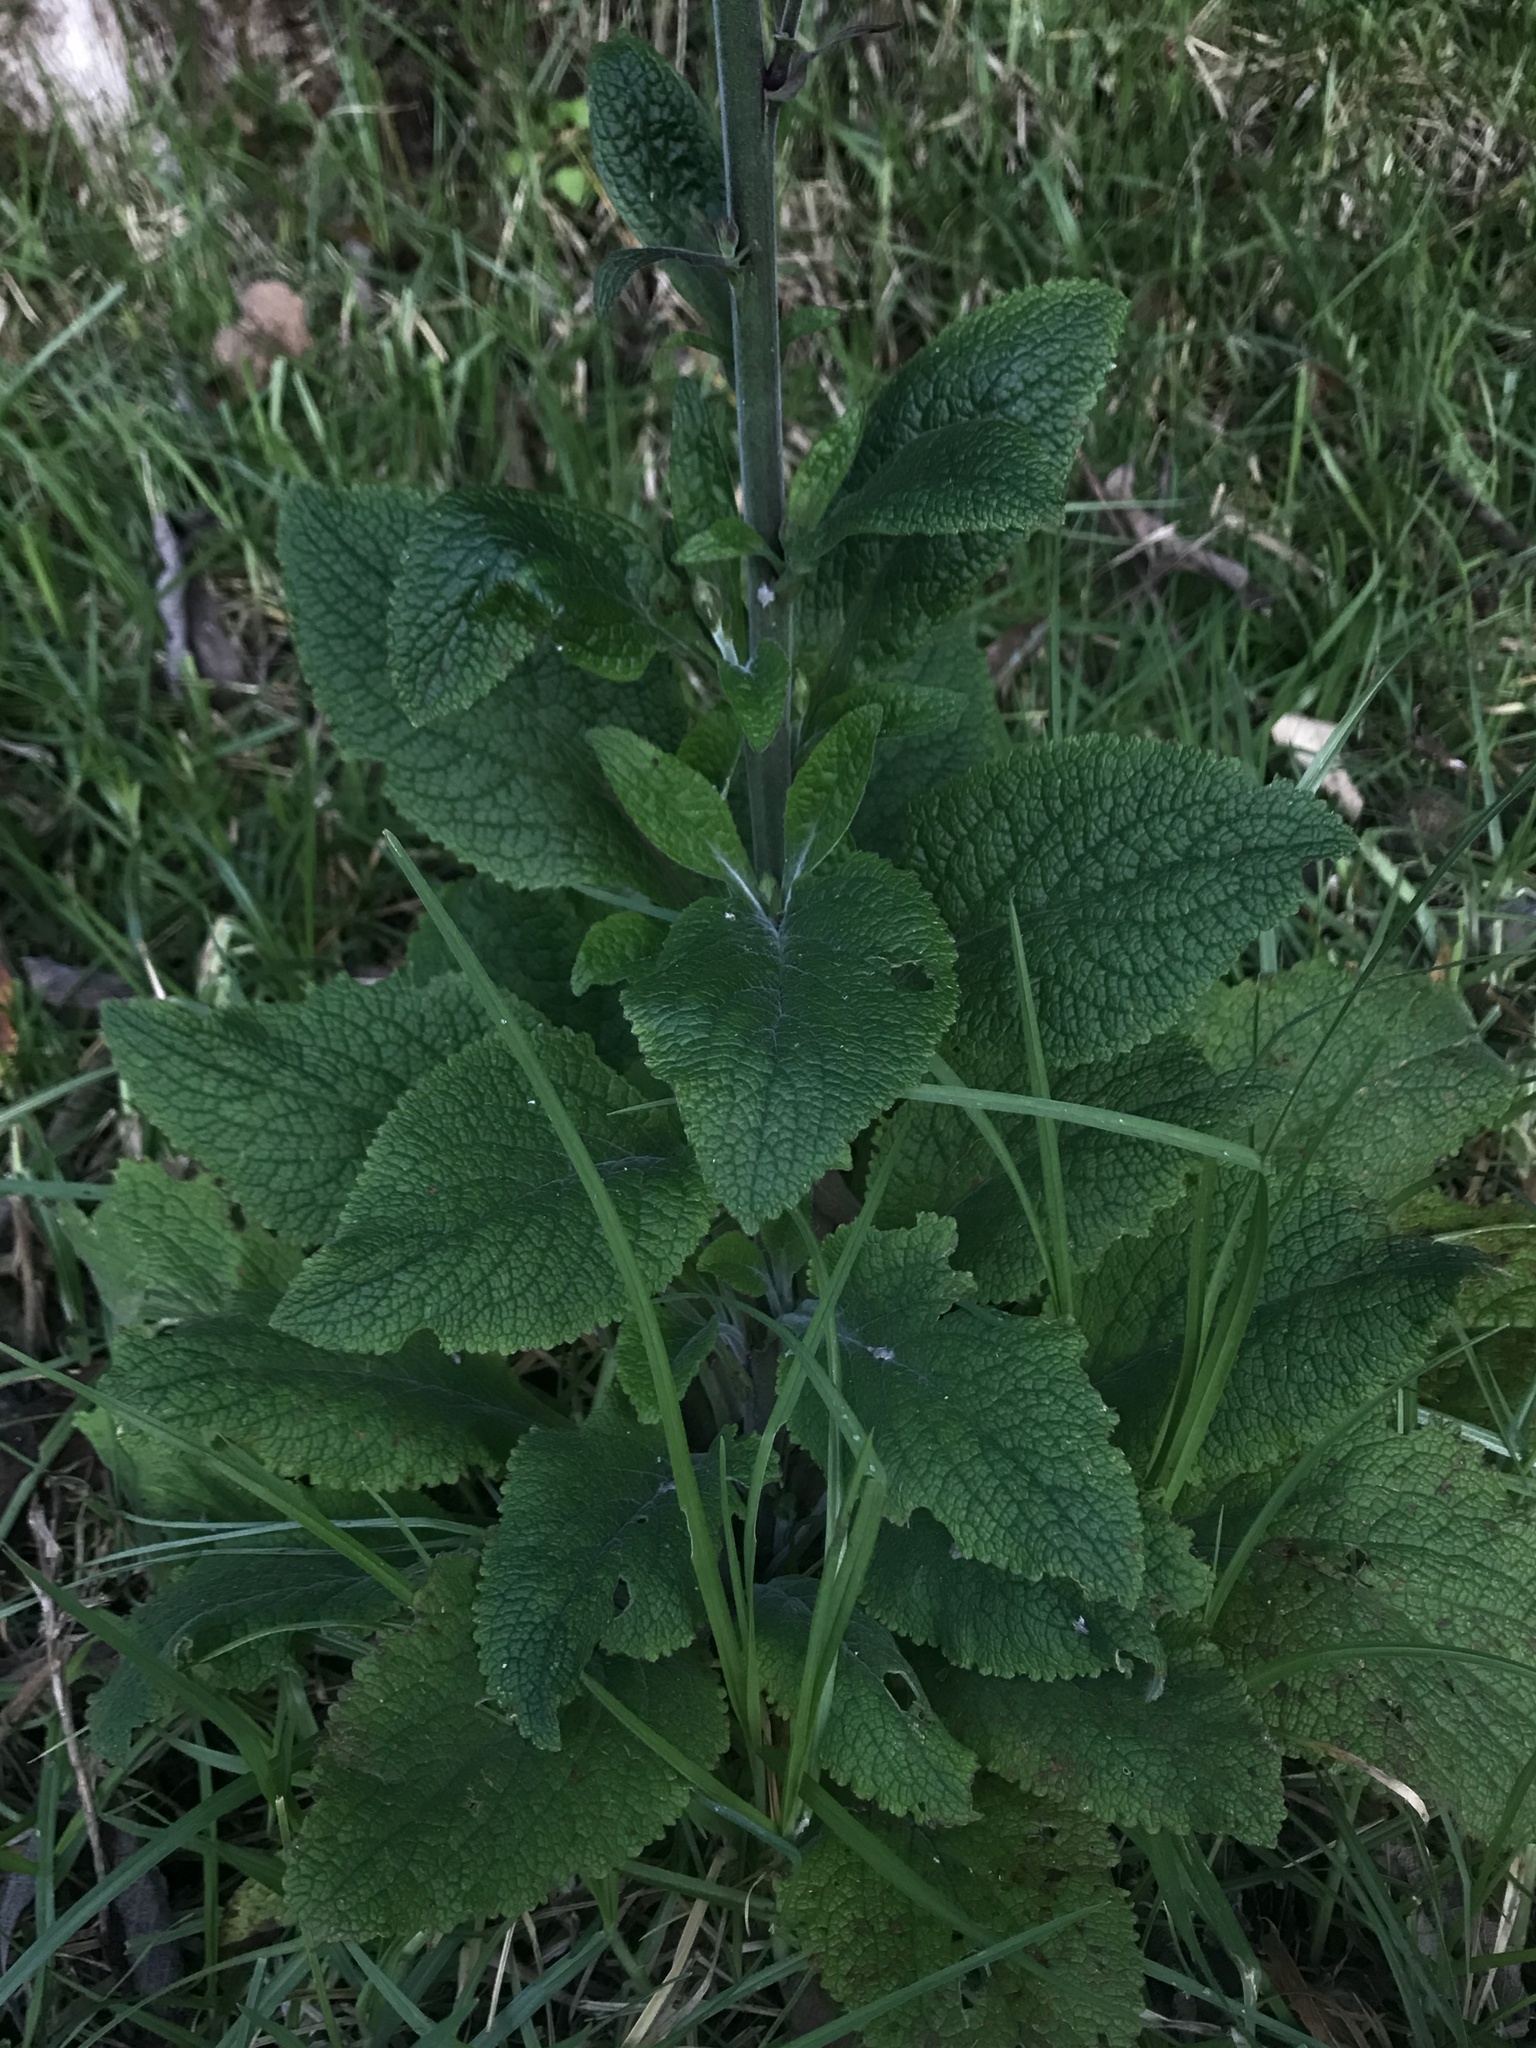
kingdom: Plantae
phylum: Tracheophyta
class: Magnoliopsida
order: Lamiales
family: Plantaginaceae
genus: Digitalis
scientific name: Digitalis purpurea
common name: Foxglove
